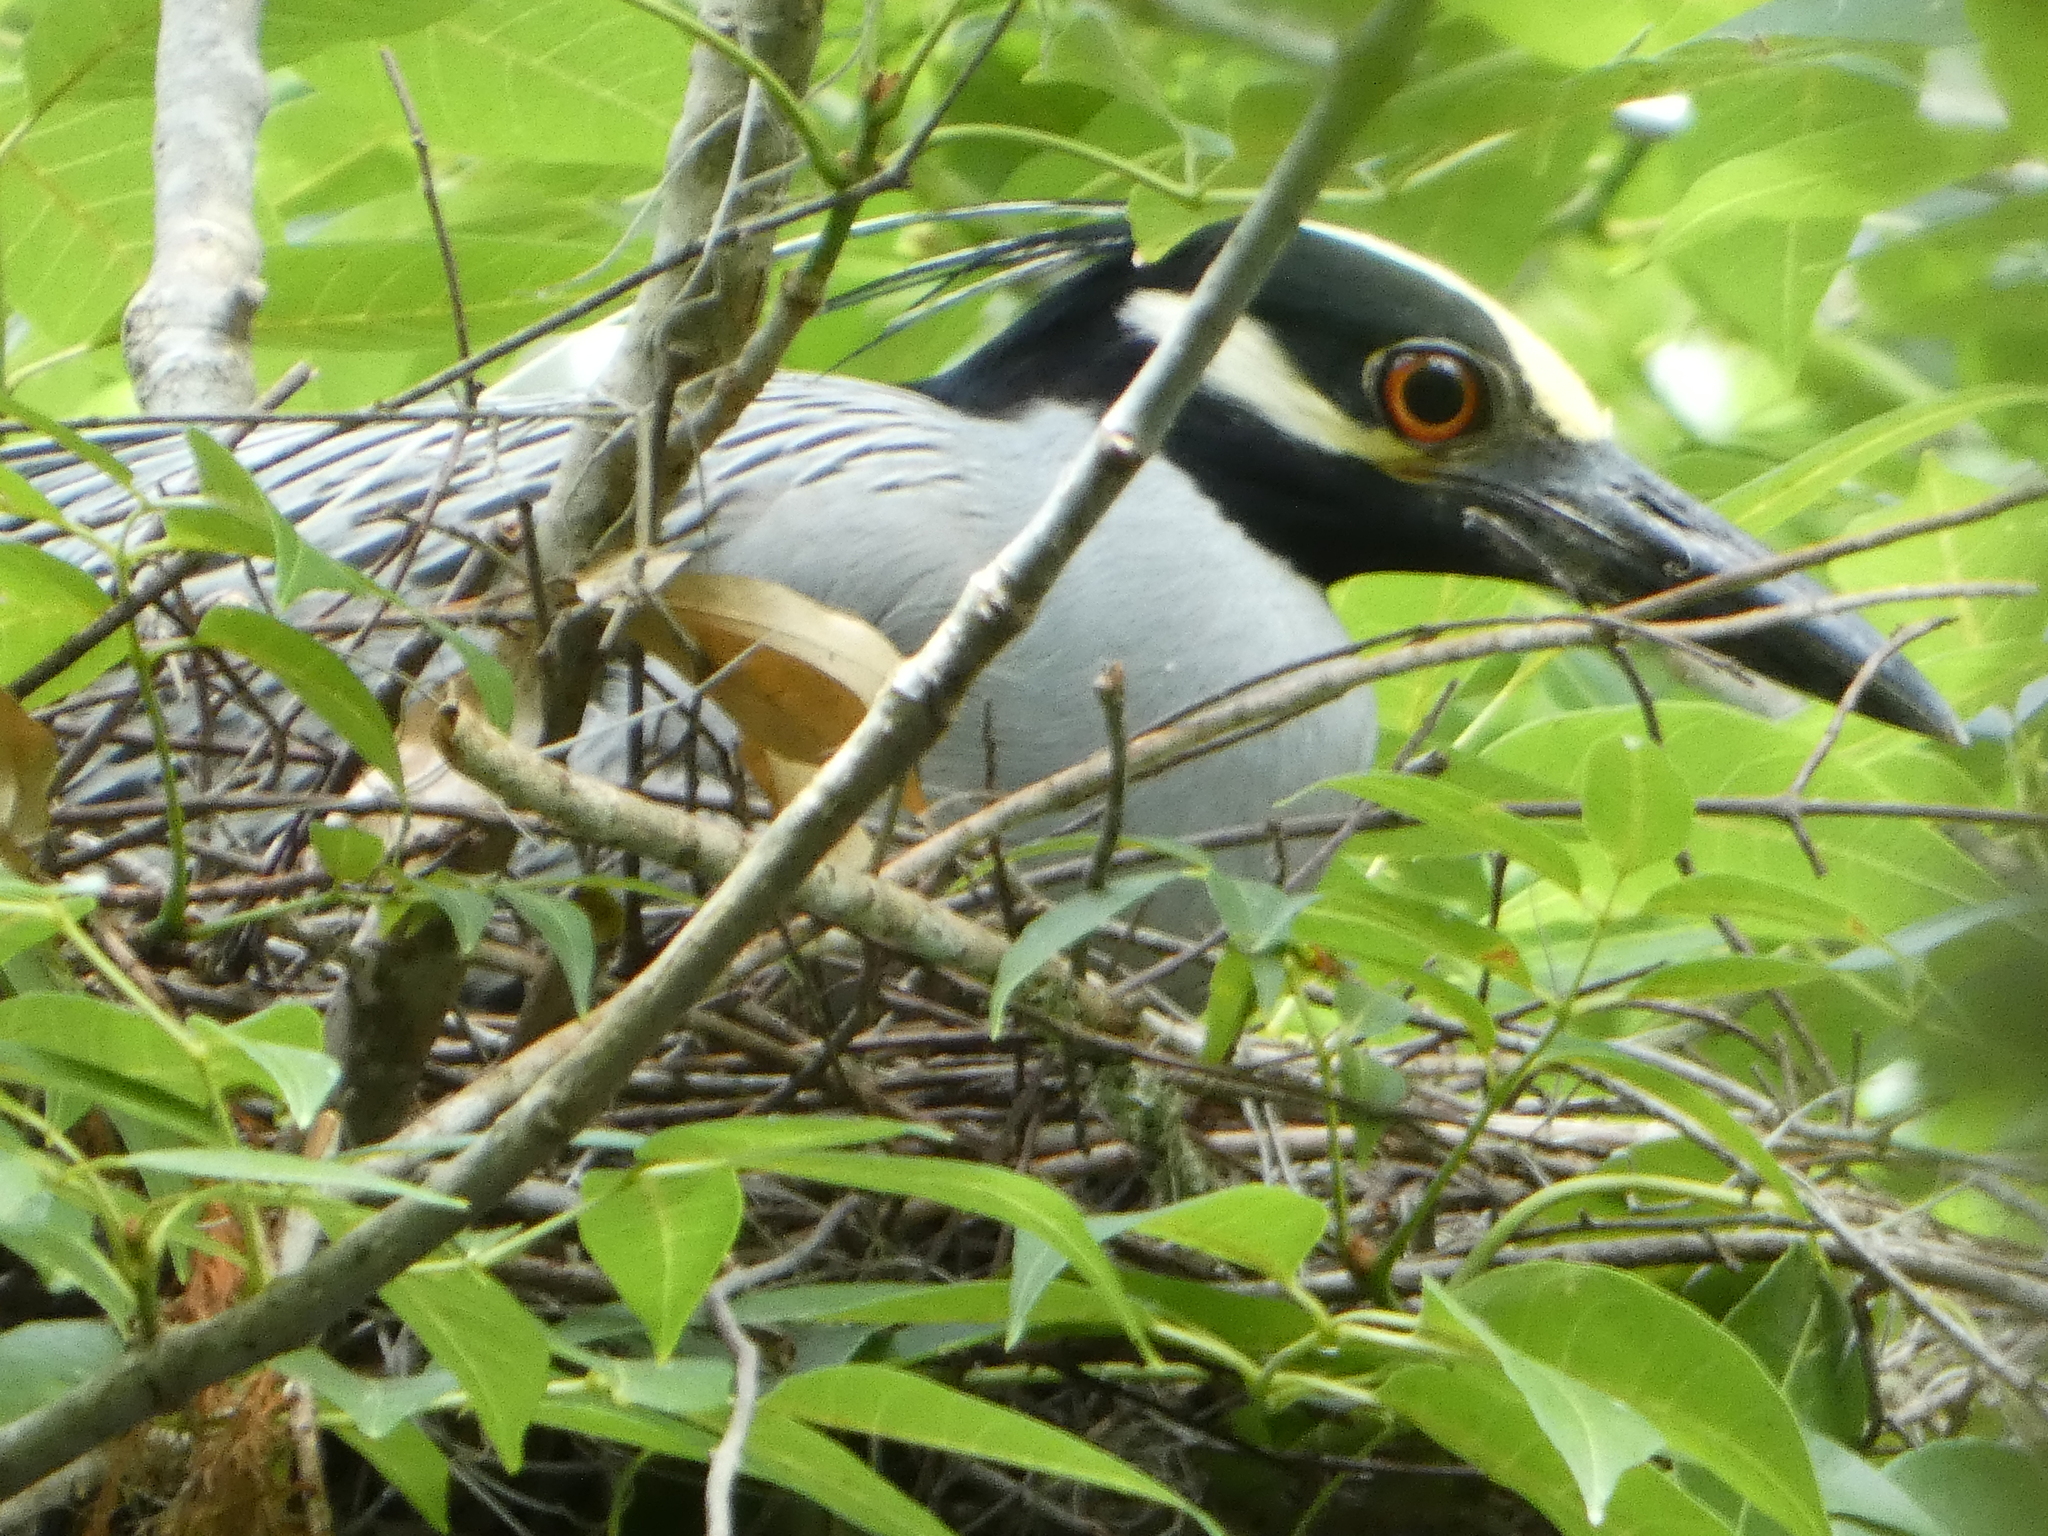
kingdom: Animalia
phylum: Chordata
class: Aves
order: Pelecaniformes
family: Ardeidae
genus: Nyctanassa
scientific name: Nyctanassa violacea
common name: Yellow-crowned night heron
